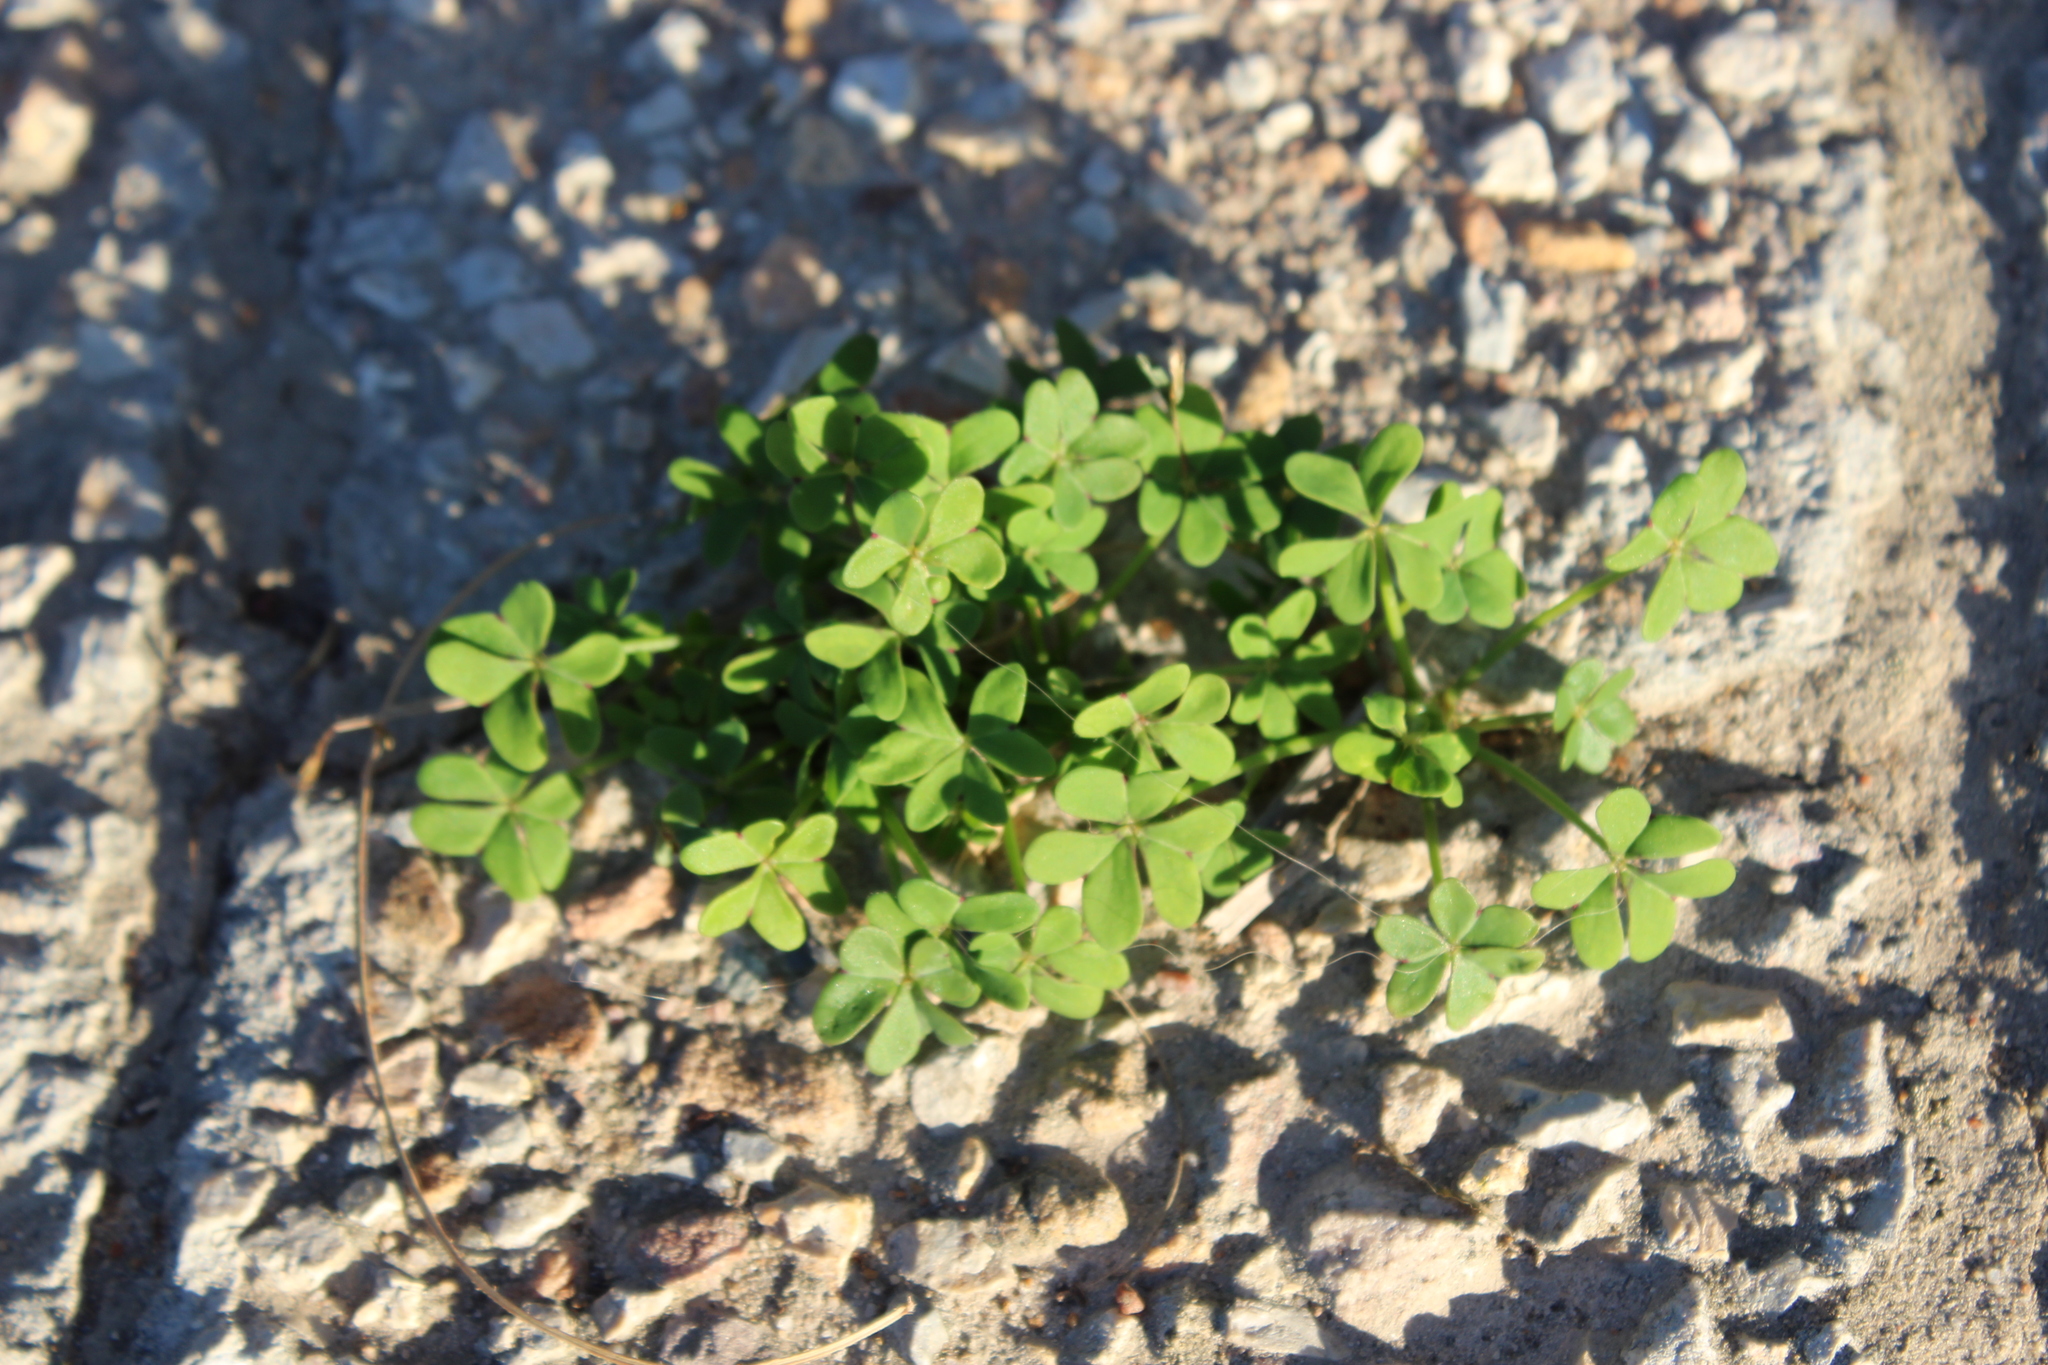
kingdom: Plantae
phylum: Tracheophyta
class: Magnoliopsida
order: Oxalidales
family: Oxalidaceae
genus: Oxalis
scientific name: Oxalis pes-caprae
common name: Bermuda-buttercup
